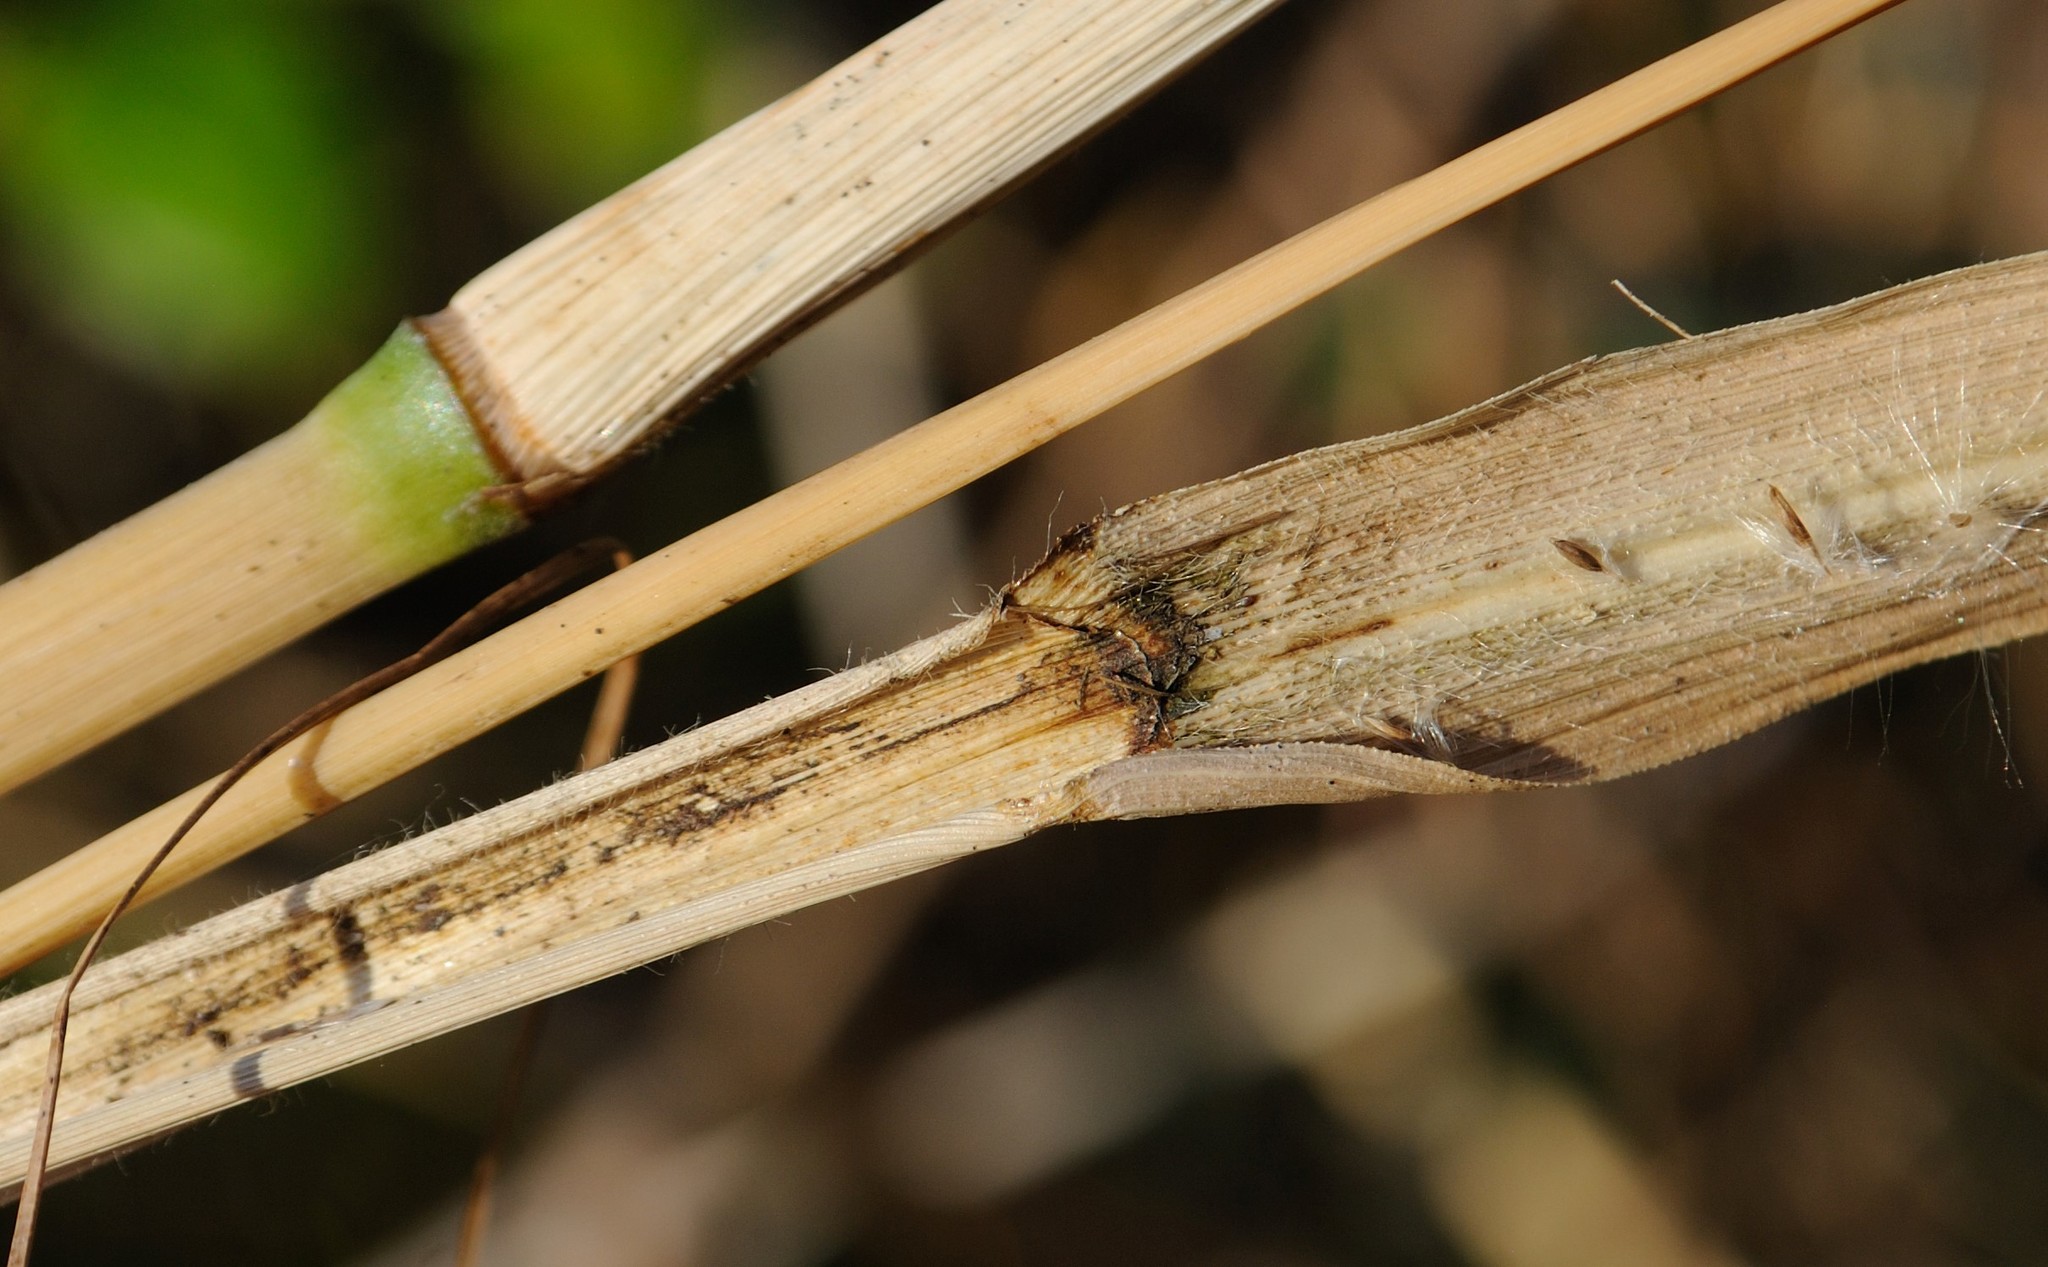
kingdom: Plantae
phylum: Tracheophyta
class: Liliopsida
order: Poales
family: Poaceae
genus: Coleataenia
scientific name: Coleataenia anceps
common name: Beaked panic grass
